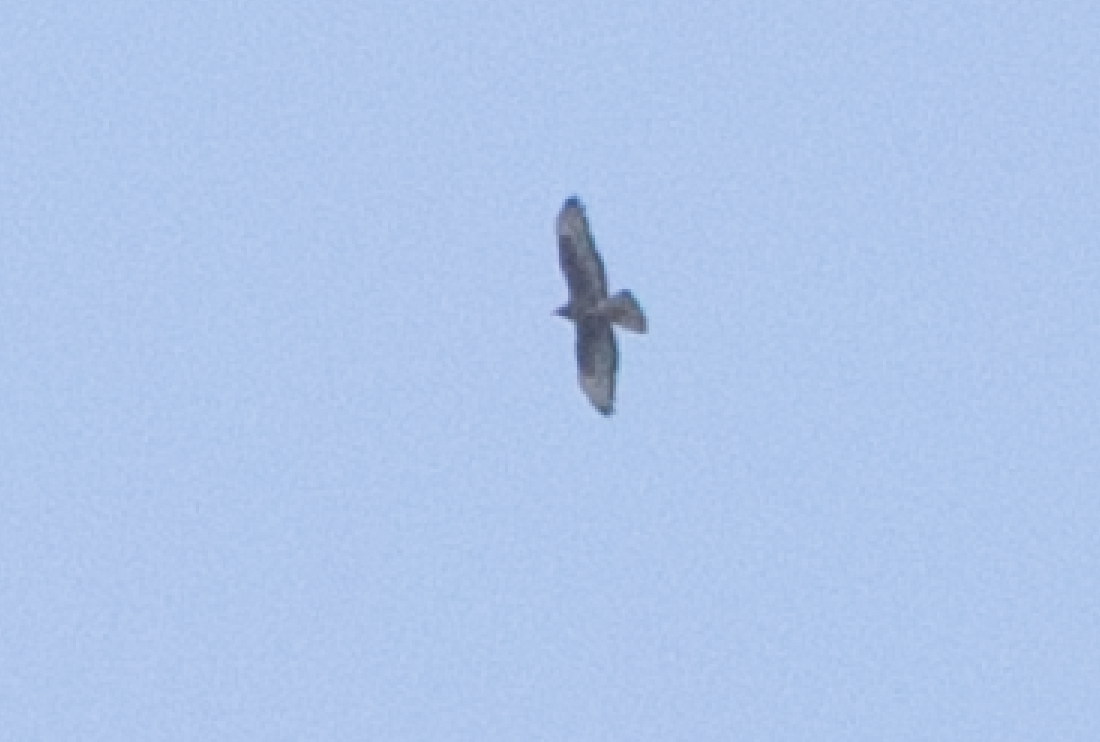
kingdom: Animalia
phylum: Chordata
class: Aves
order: Accipitriformes
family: Accipitridae
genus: Pernis
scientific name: Pernis apivorus
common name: European honey buzzard
